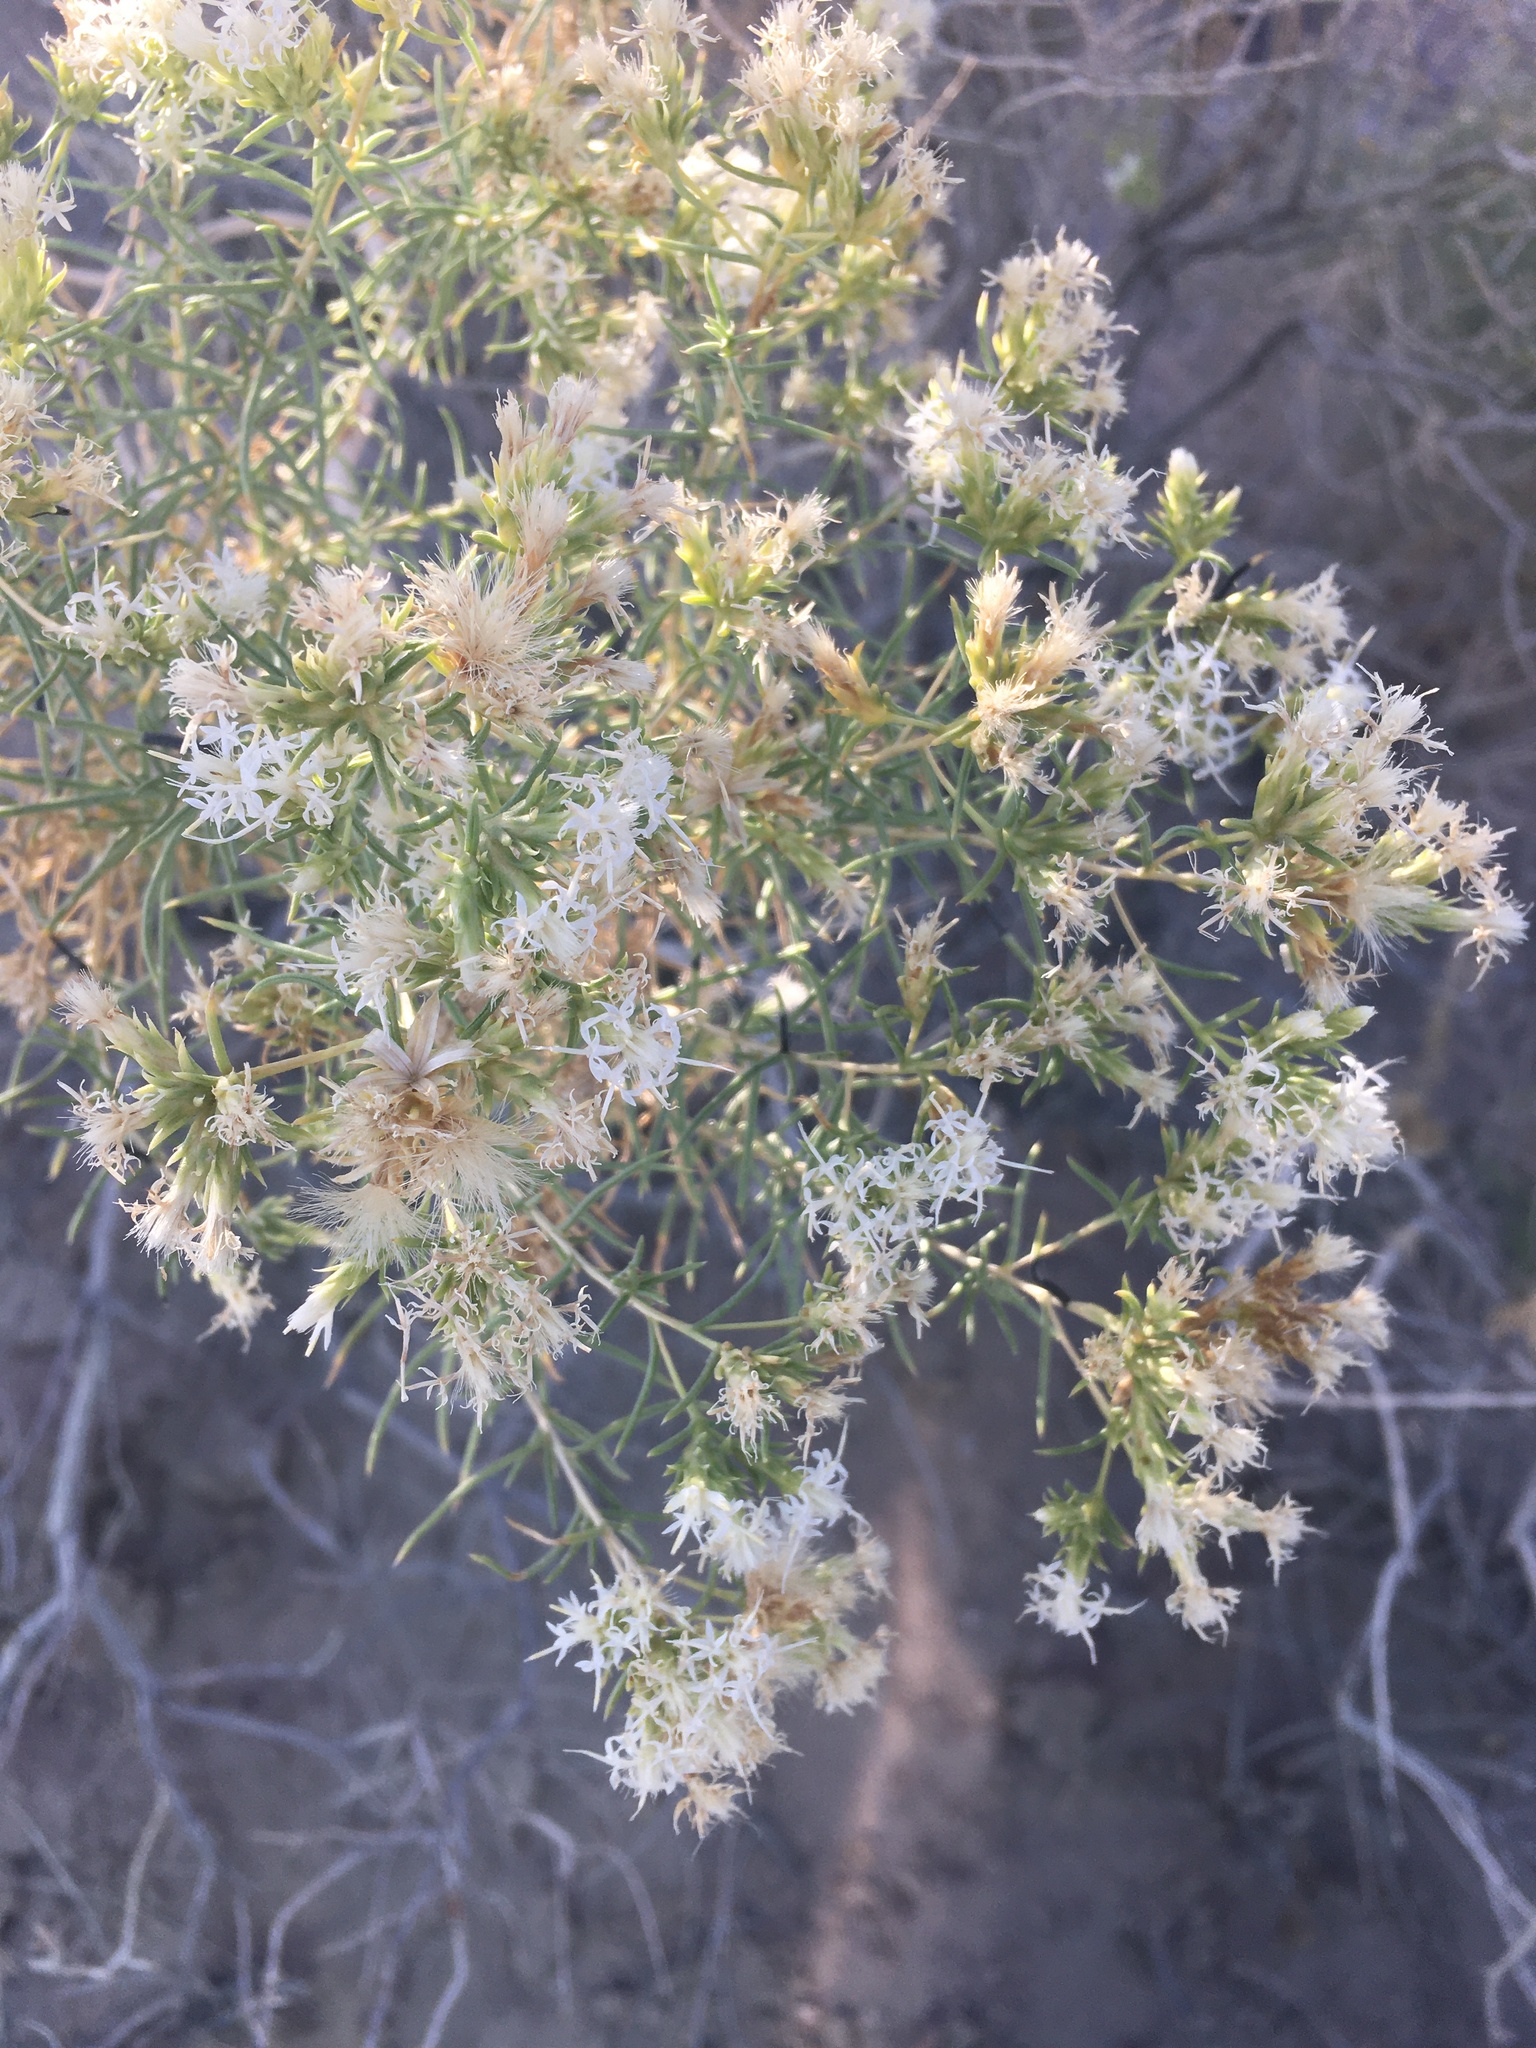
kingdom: Plantae
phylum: Tracheophyta
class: Magnoliopsida
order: Asterales
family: Asteraceae
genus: Ericameria
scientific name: Ericameria albida
